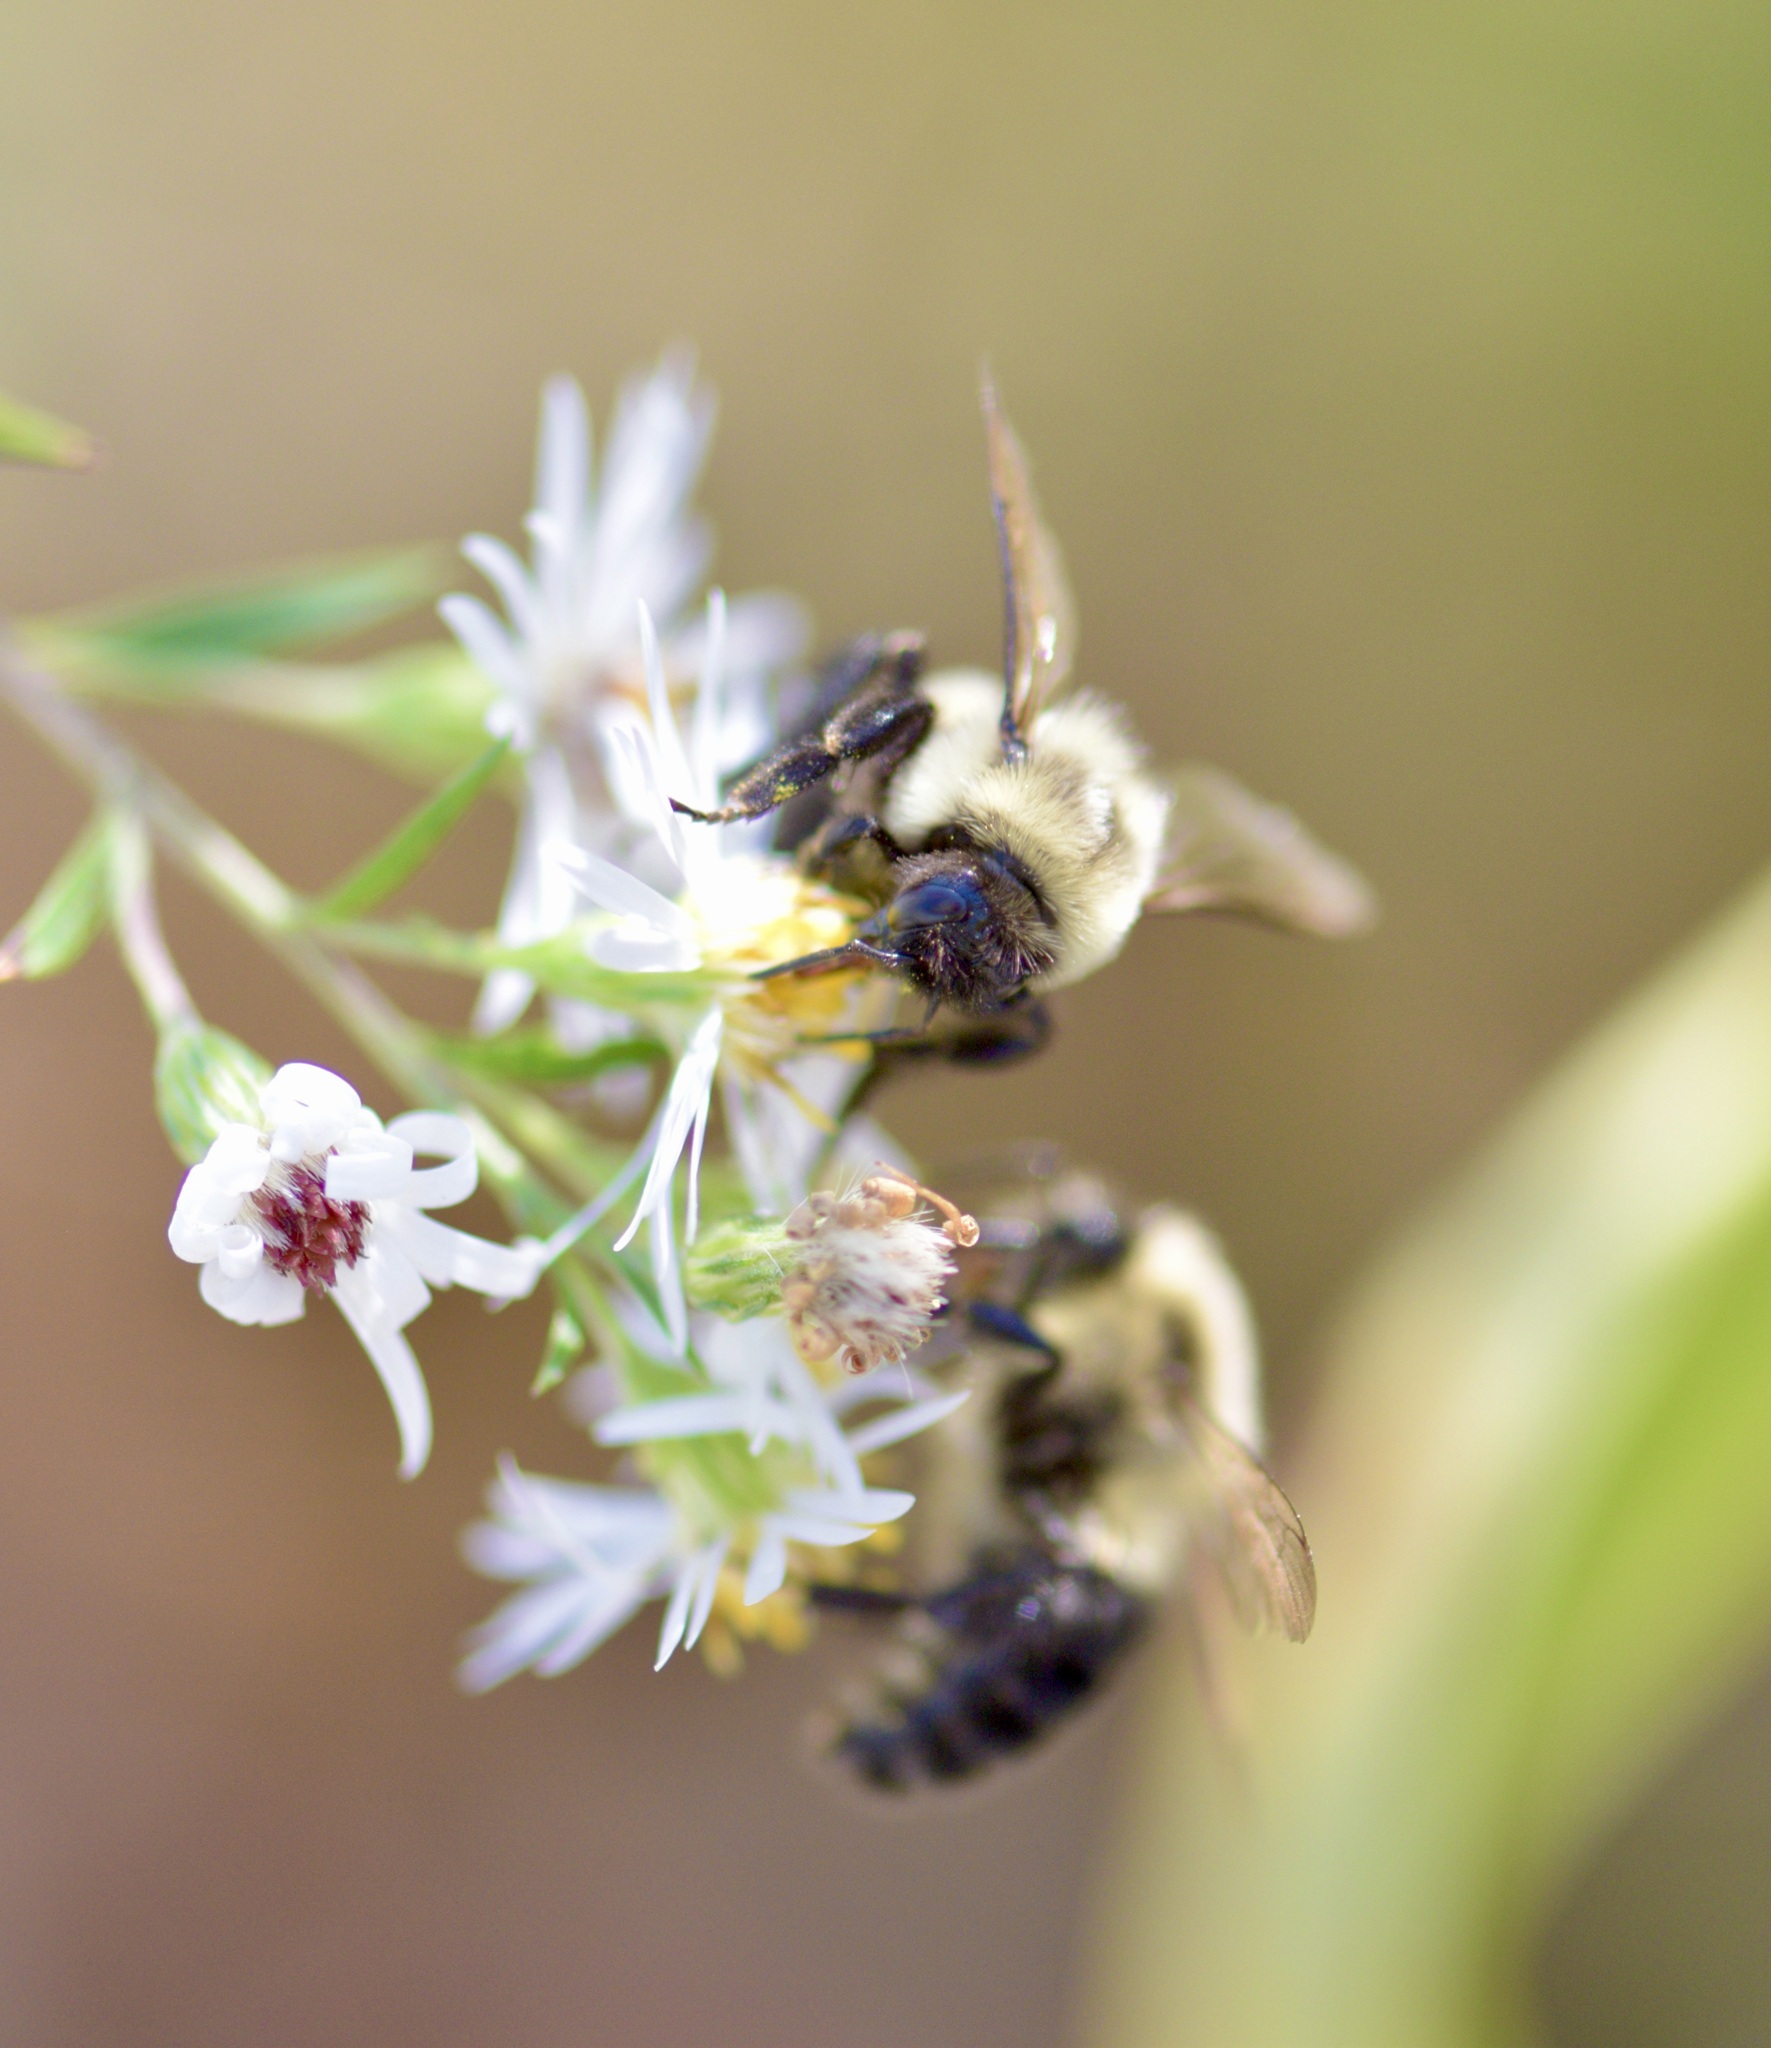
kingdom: Animalia
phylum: Arthropoda
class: Insecta
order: Hymenoptera
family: Apidae
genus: Bombus
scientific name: Bombus impatiens
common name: Common eastern bumble bee
